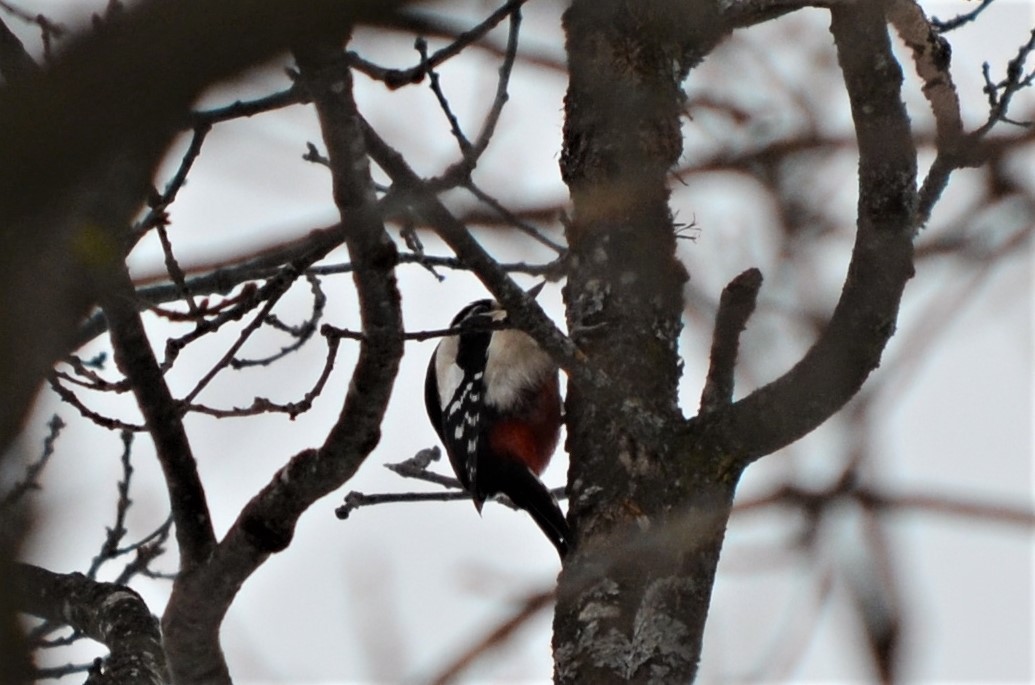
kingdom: Animalia
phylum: Chordata
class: Aves
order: Piciformes
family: Picidae
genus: Dendrocopos
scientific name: Dendrocopos major
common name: Great spotted woodpecker
